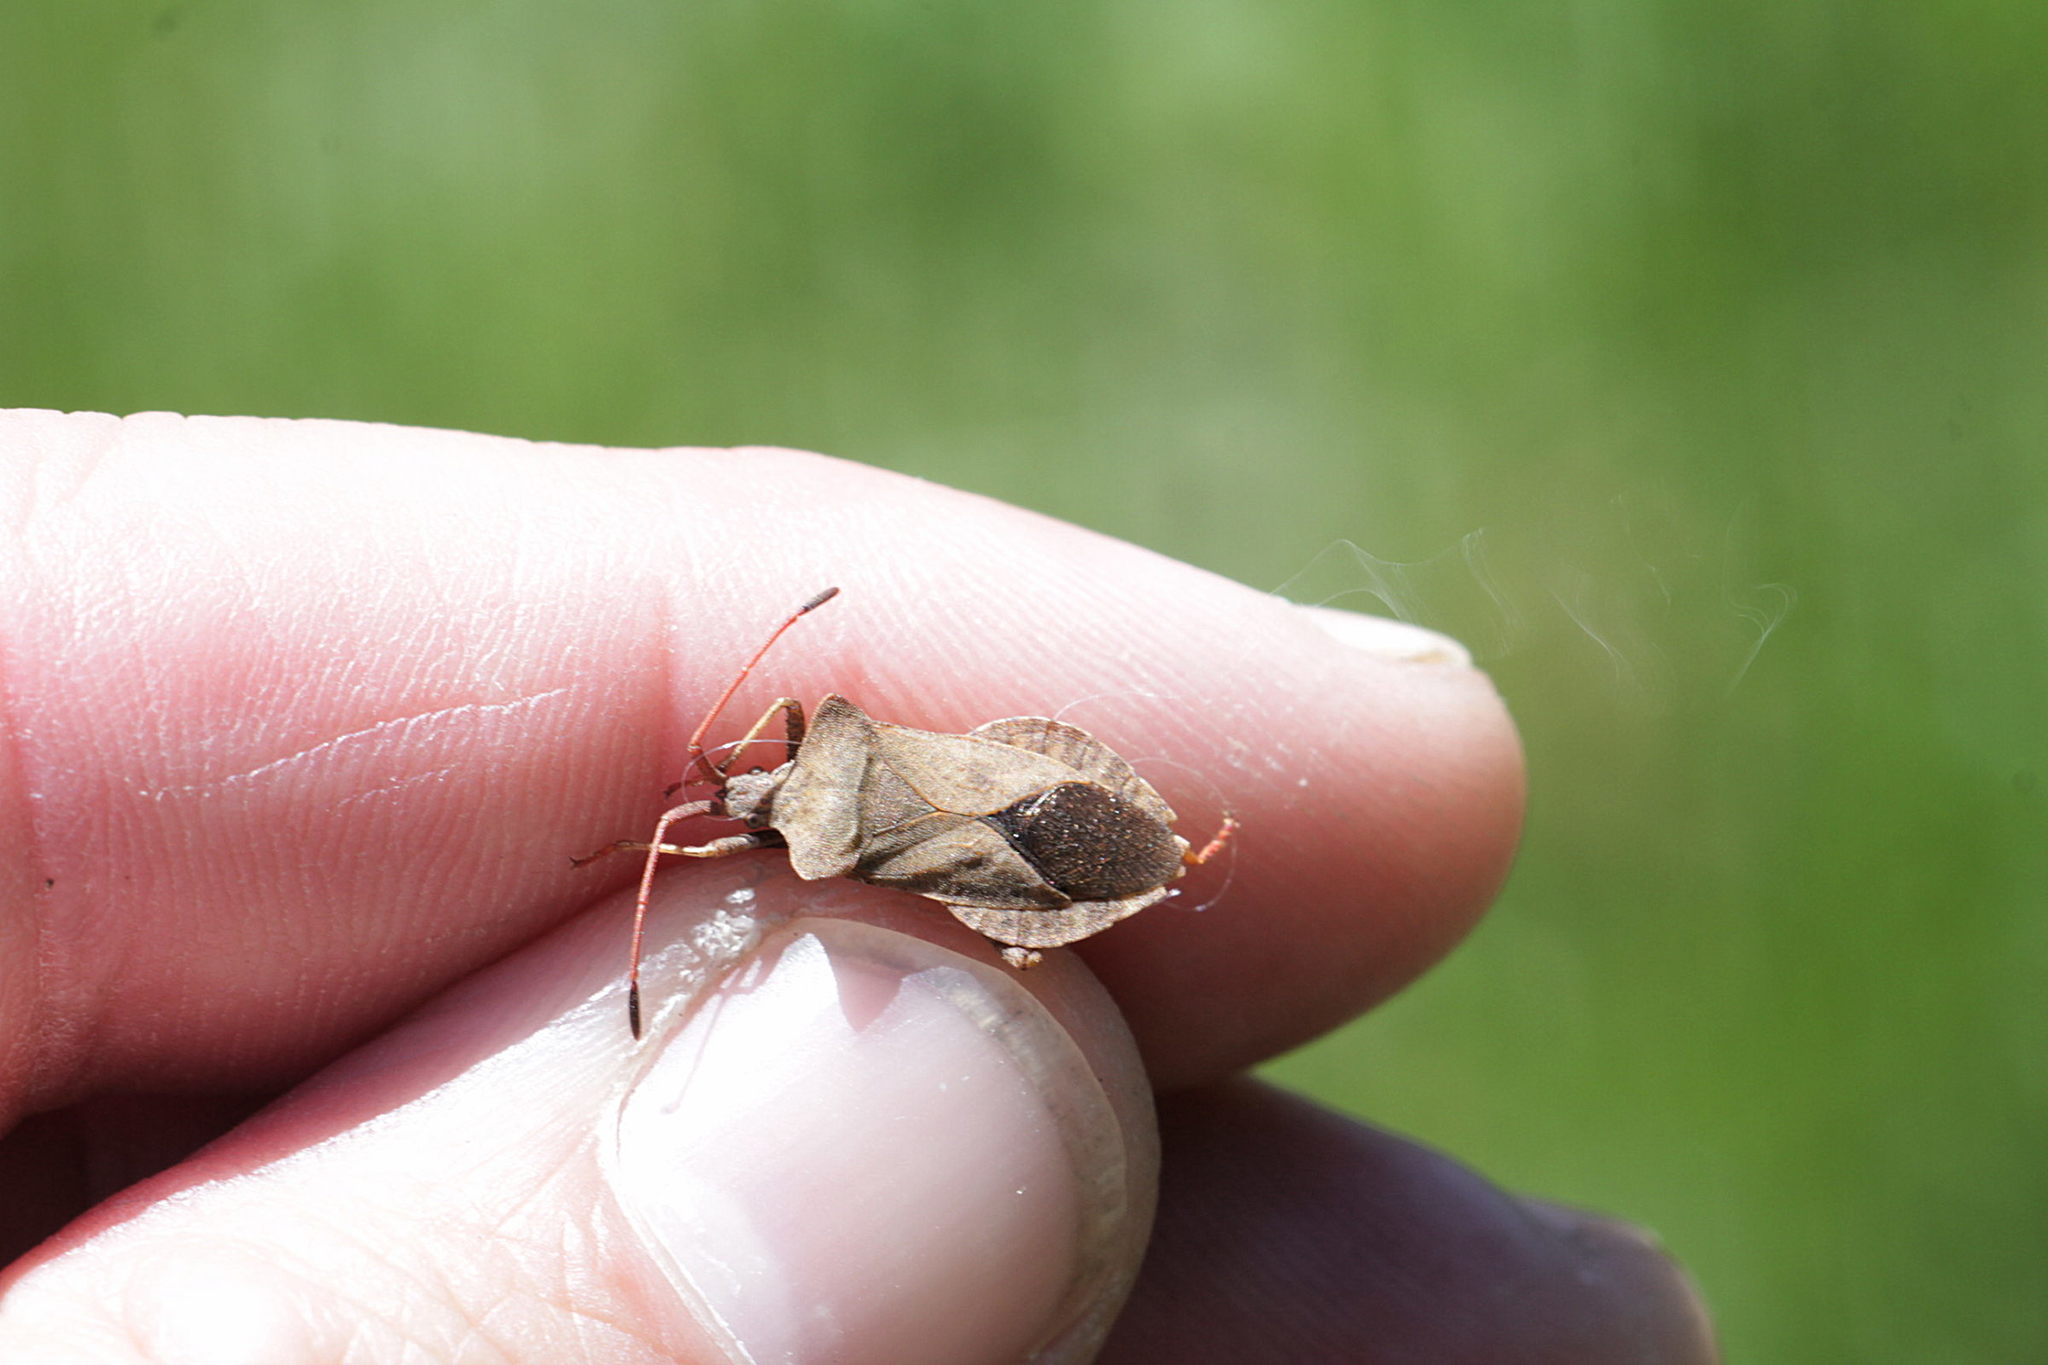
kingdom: Animalia
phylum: Arthropoda
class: Insecta
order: Hemiptera
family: Coreidae
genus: Coreus
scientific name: Coreus marginatus
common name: Dock bug
